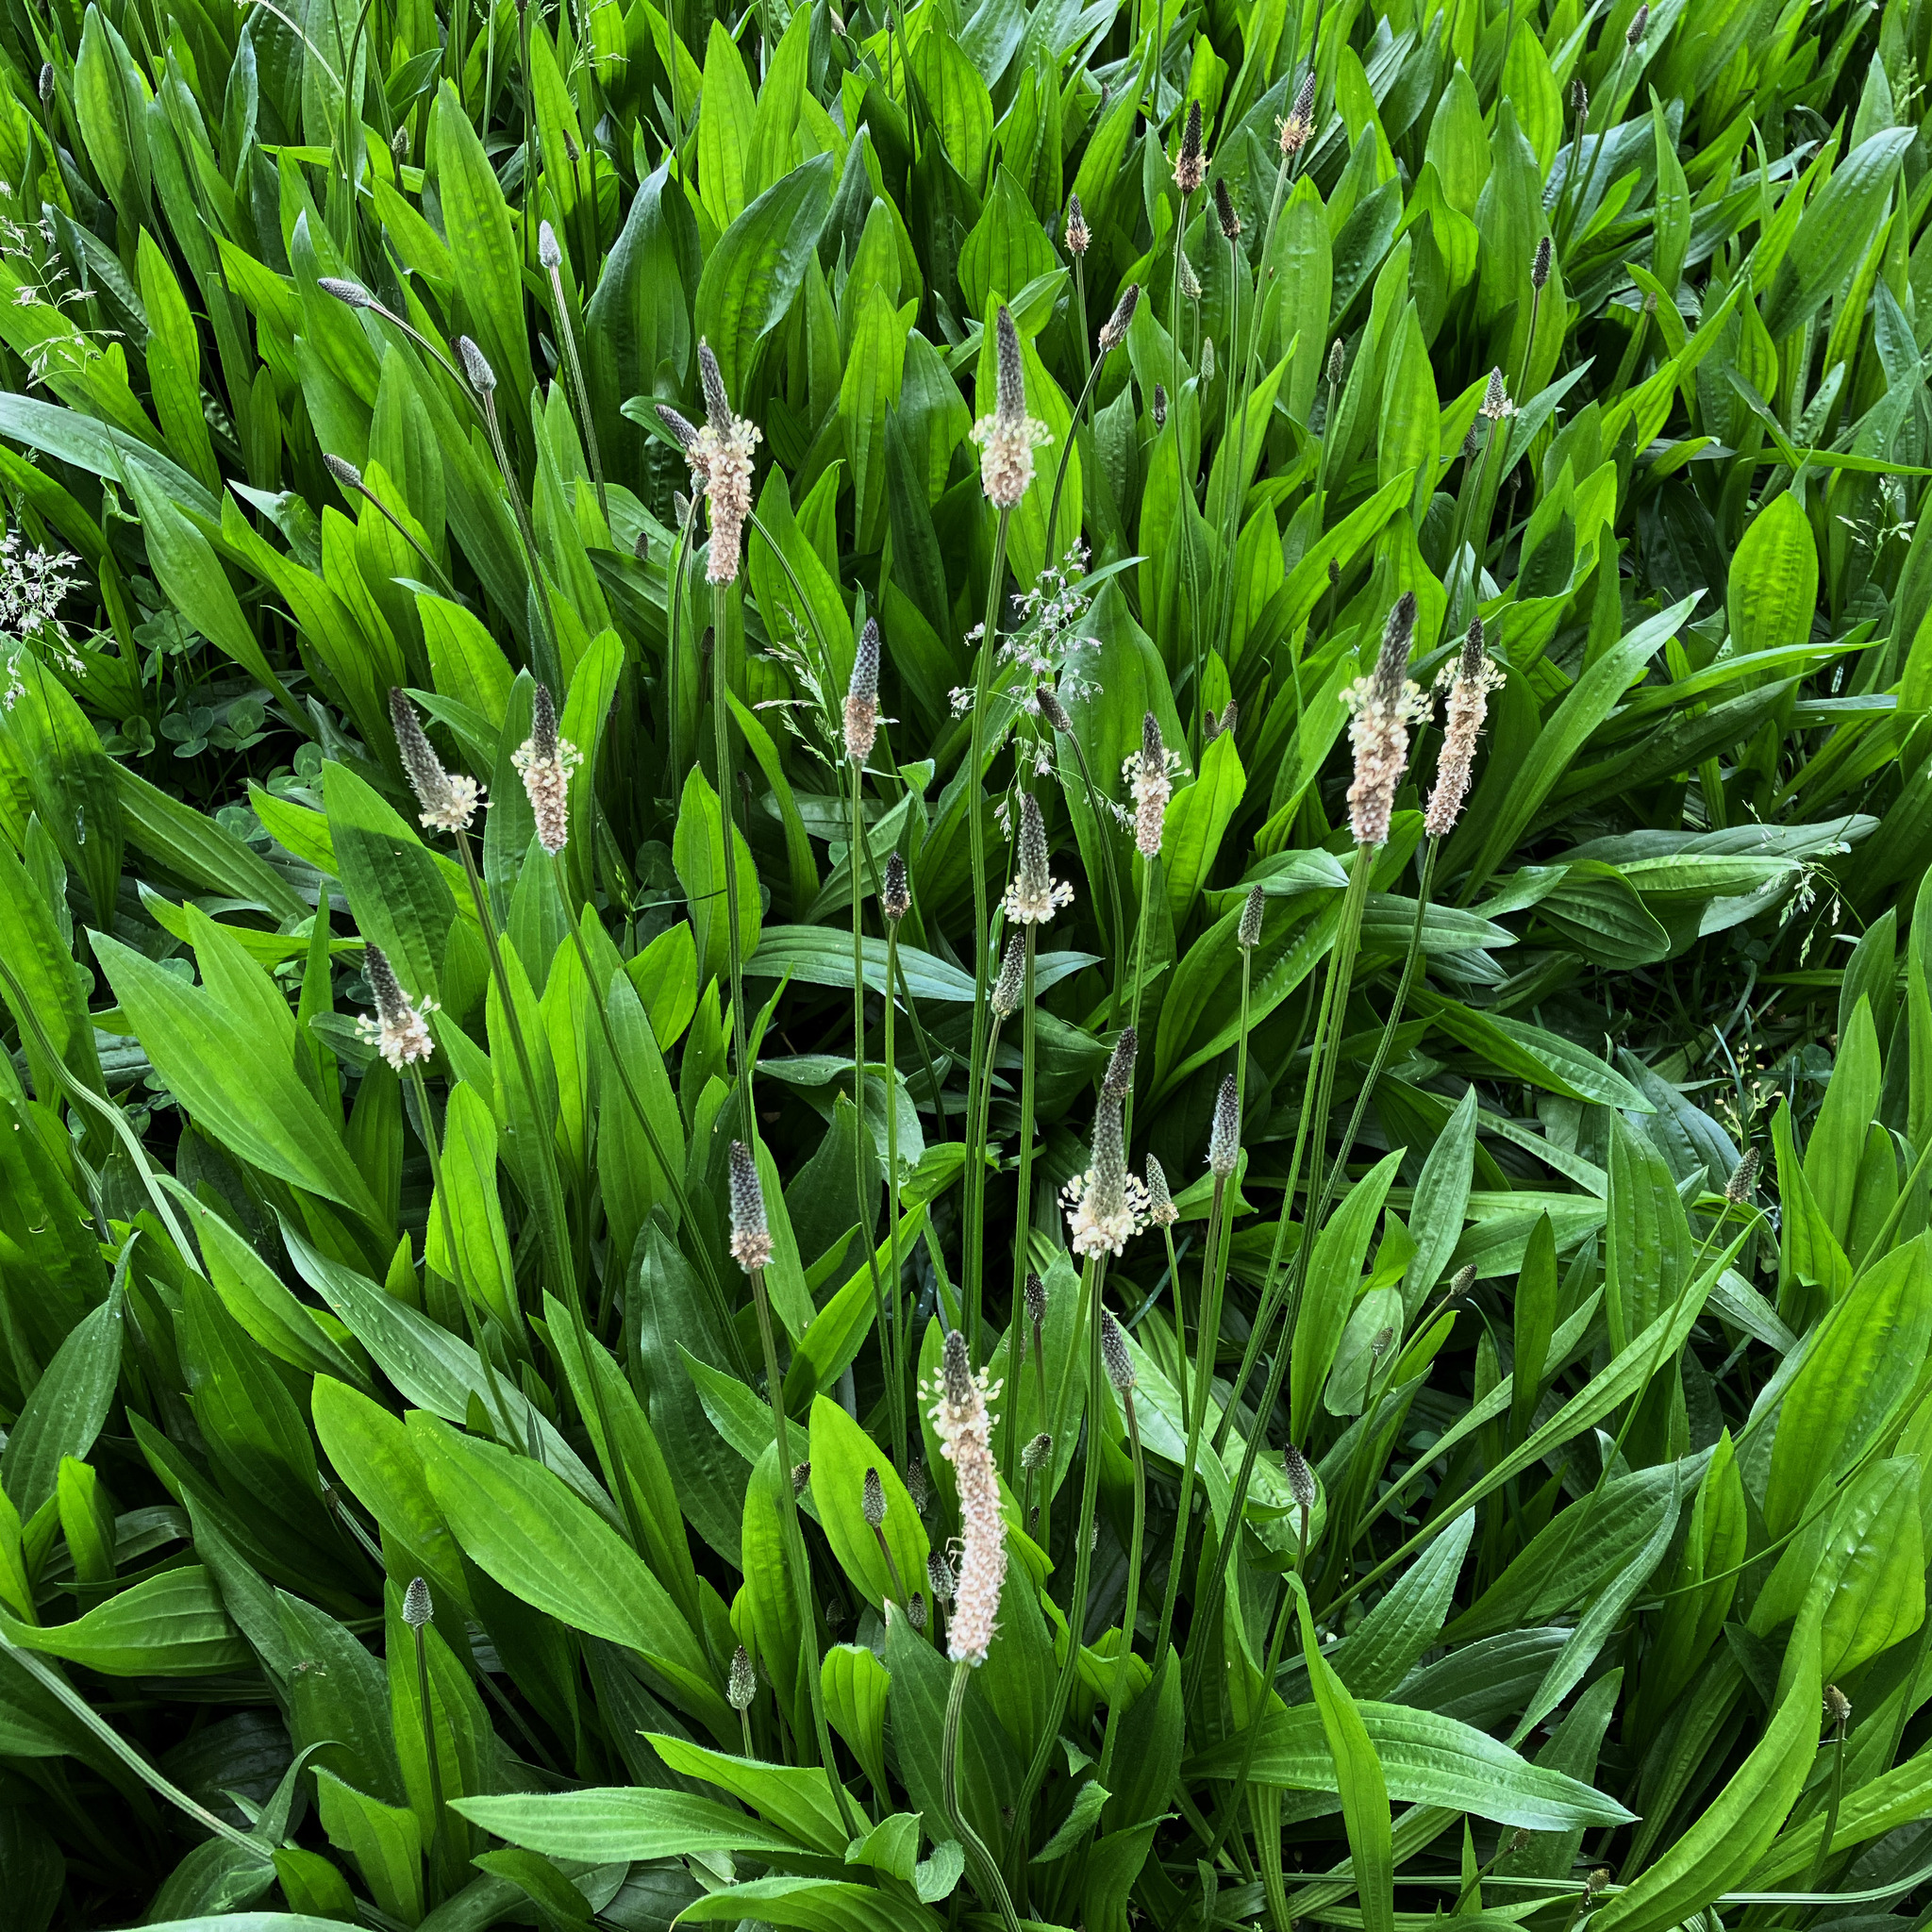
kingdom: Plantae
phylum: Tracheophyta
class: Magnoliopsida
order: Lamiales
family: Plantaginaceae
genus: Plantago
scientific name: Plantago lanceolata
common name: Ribwort plantain
